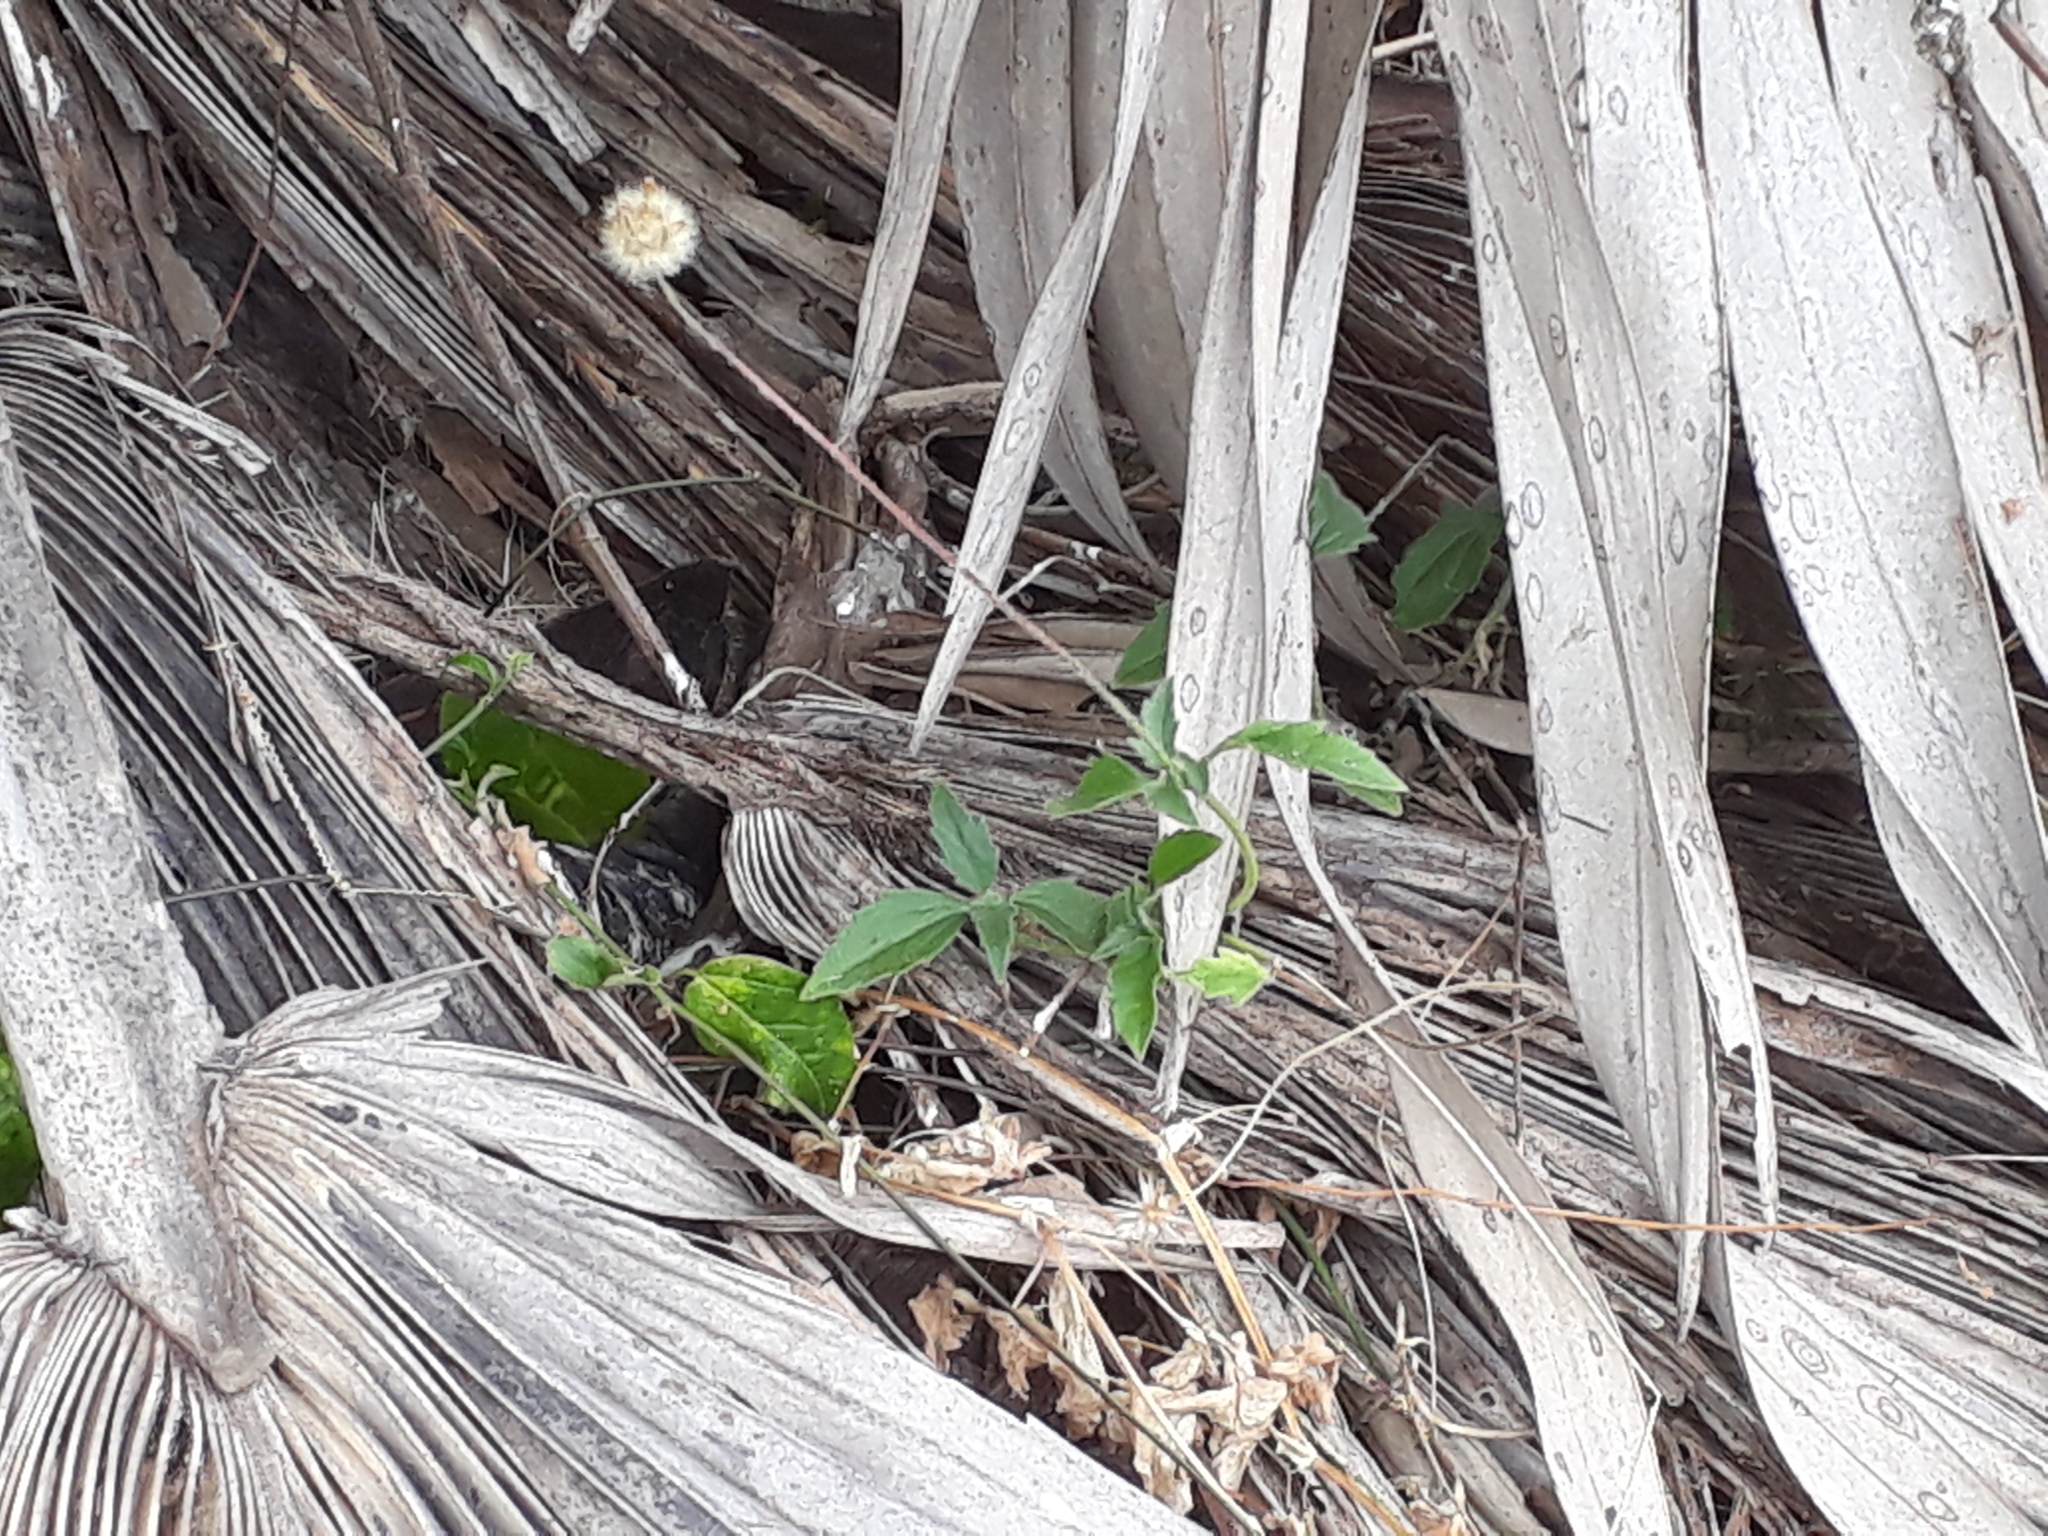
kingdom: Plantae
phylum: Tracheophyta
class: Magnoliopsida
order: Asterales
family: Asteraceae
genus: Tridax
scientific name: Tridax procumbens
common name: Coatbuttons
